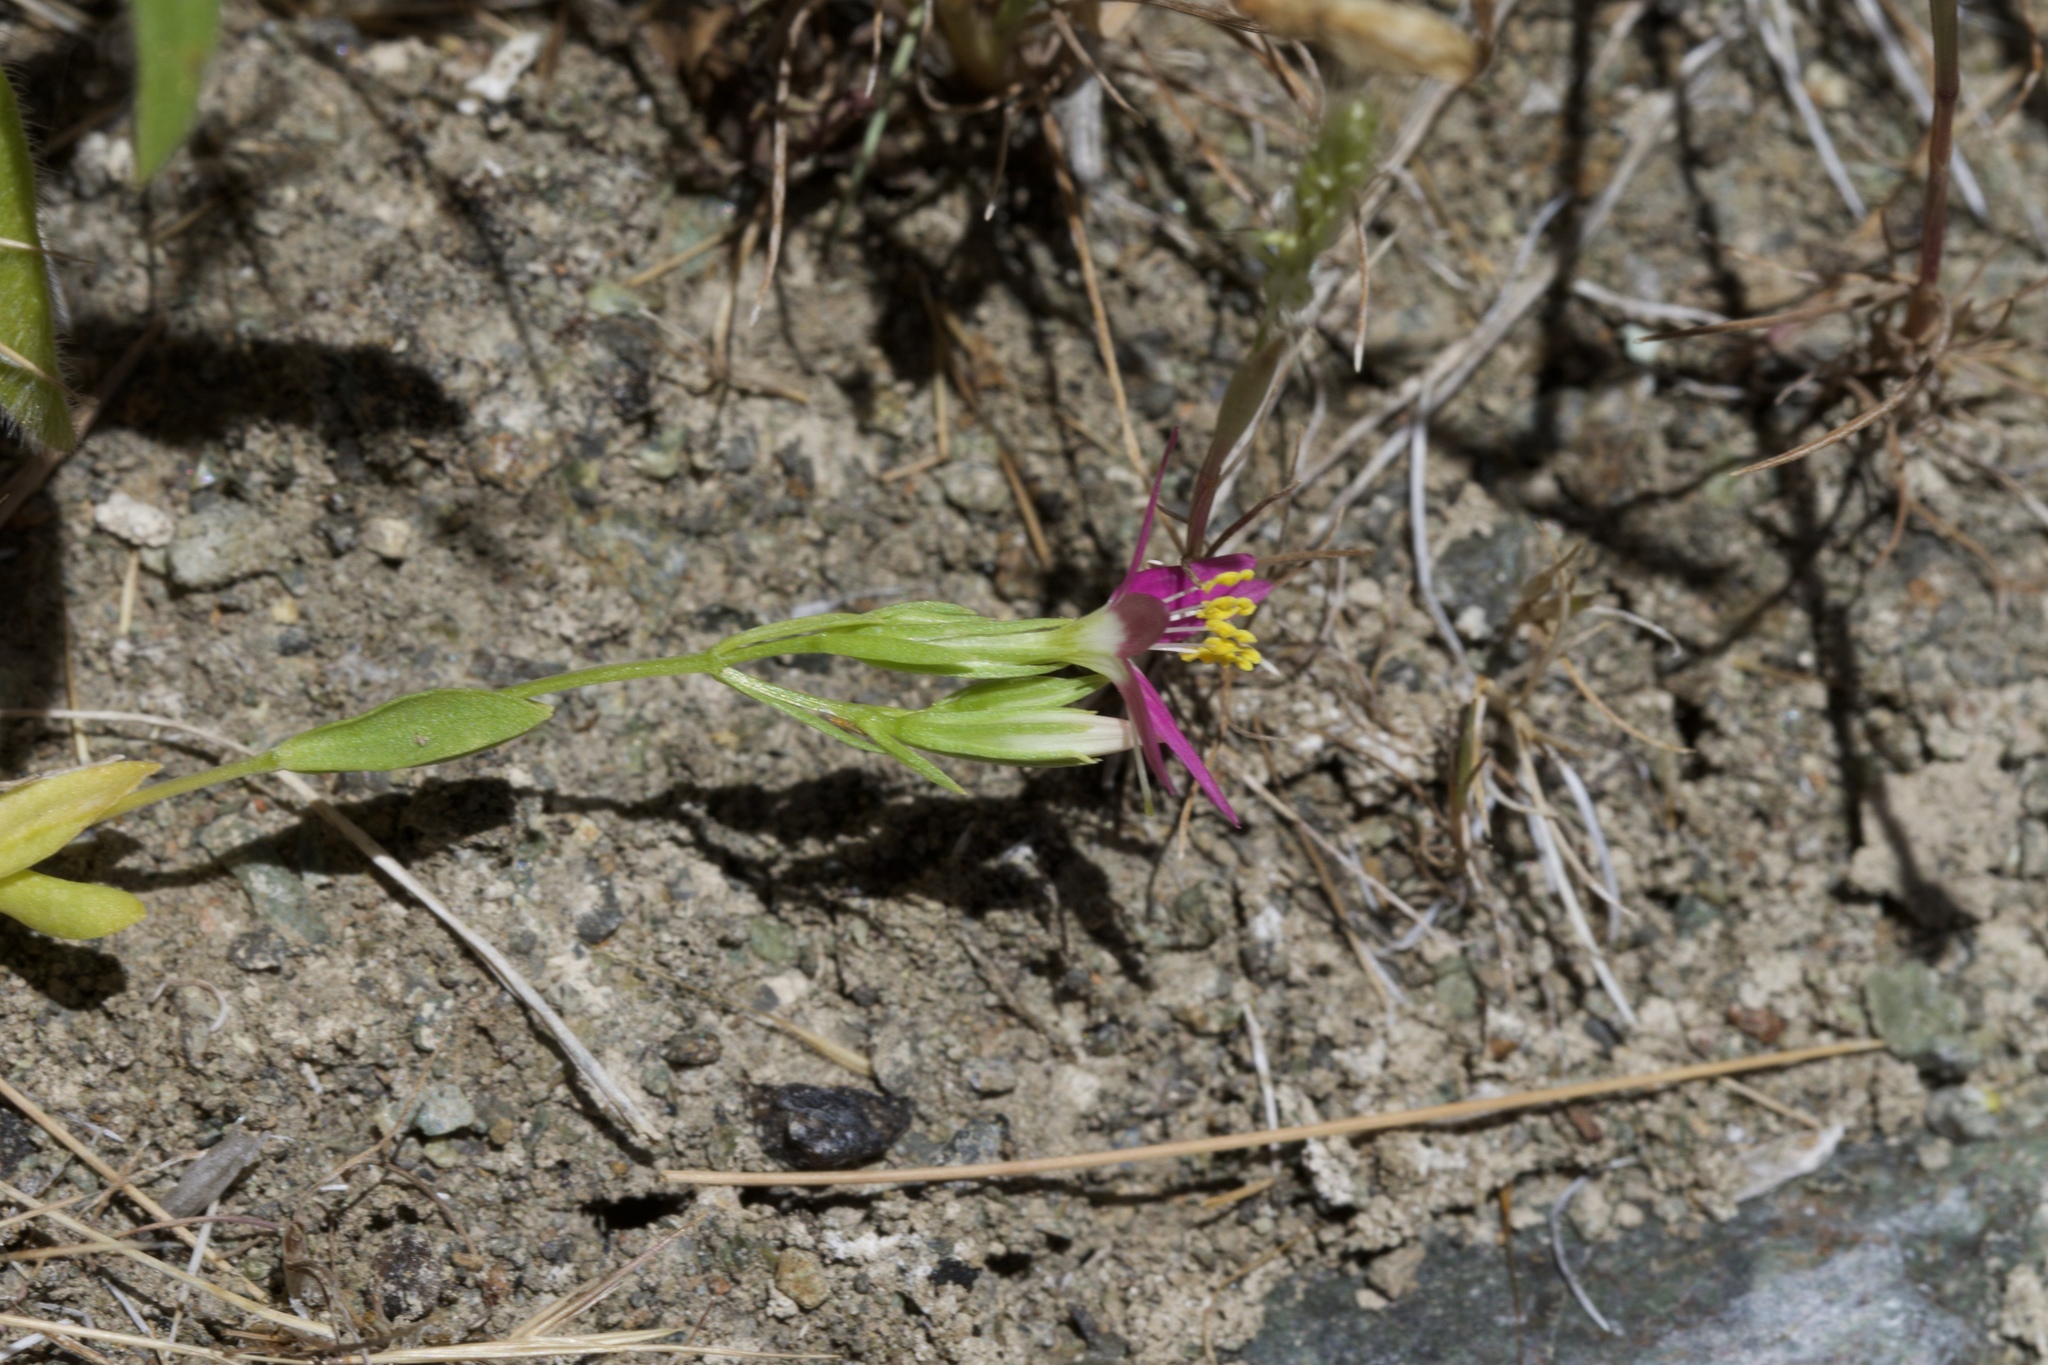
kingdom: Plantae
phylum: Tracheophyta
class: Magnoliopsida
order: Gentianales
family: Gentianaceae
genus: Zeltnera
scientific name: Zeltnera trichantha
